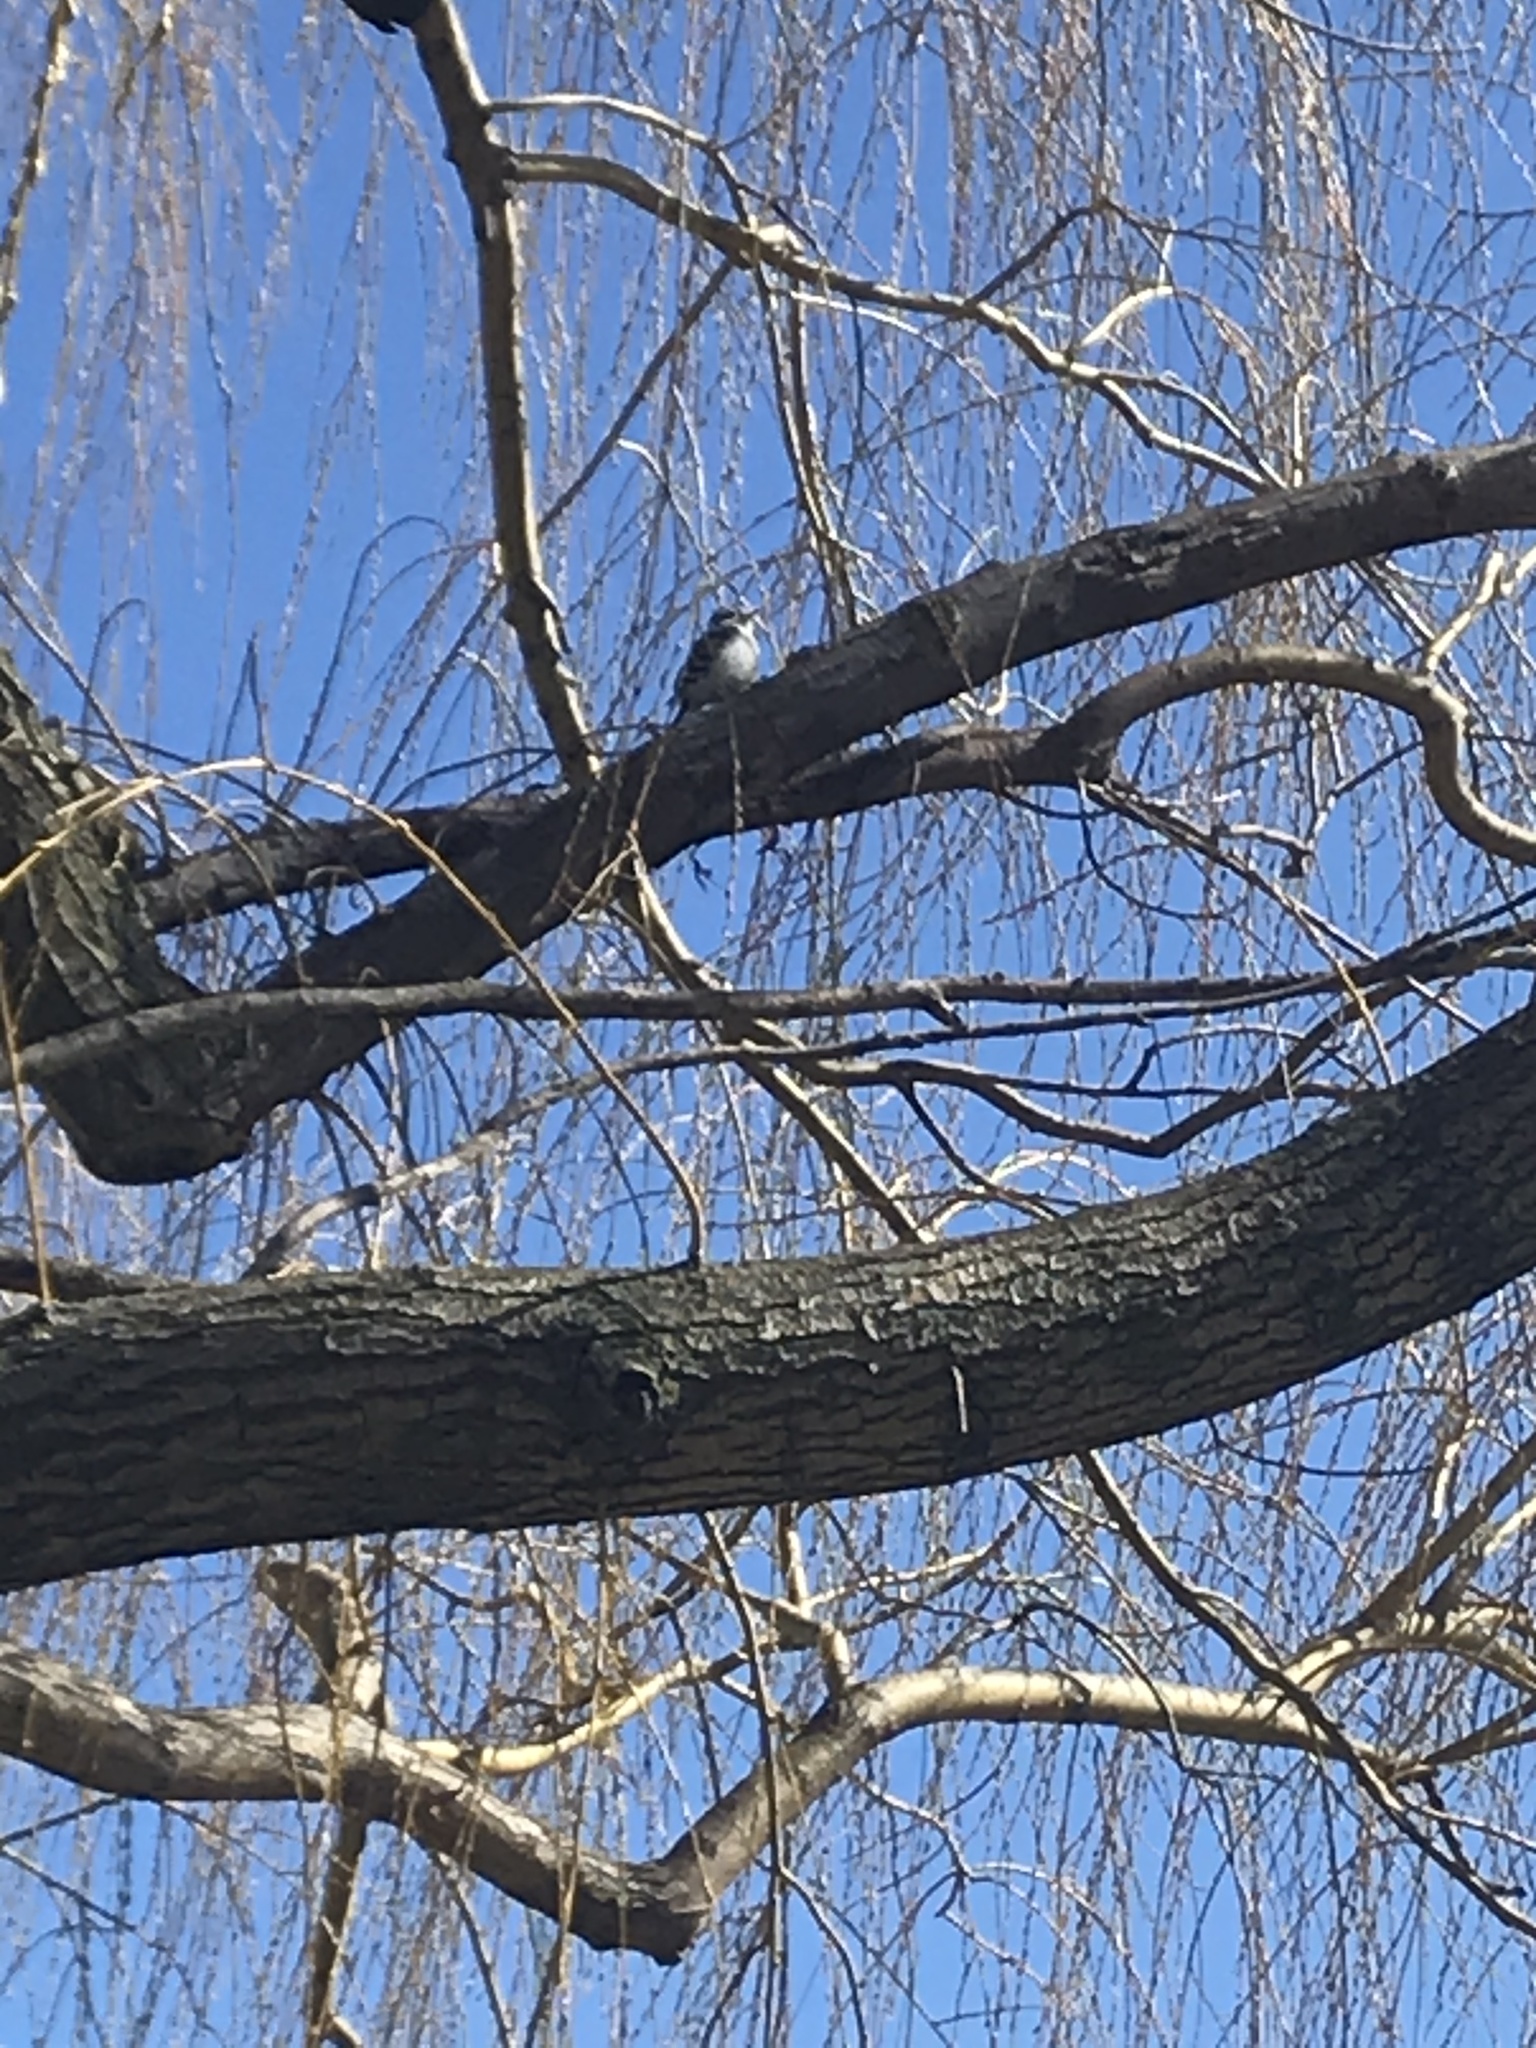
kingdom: Animalia
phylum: Chordata
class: Aves
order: Piciformes
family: Picidae
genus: Dryobates
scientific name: Dryobates pubescens
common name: Downy woodpecker
